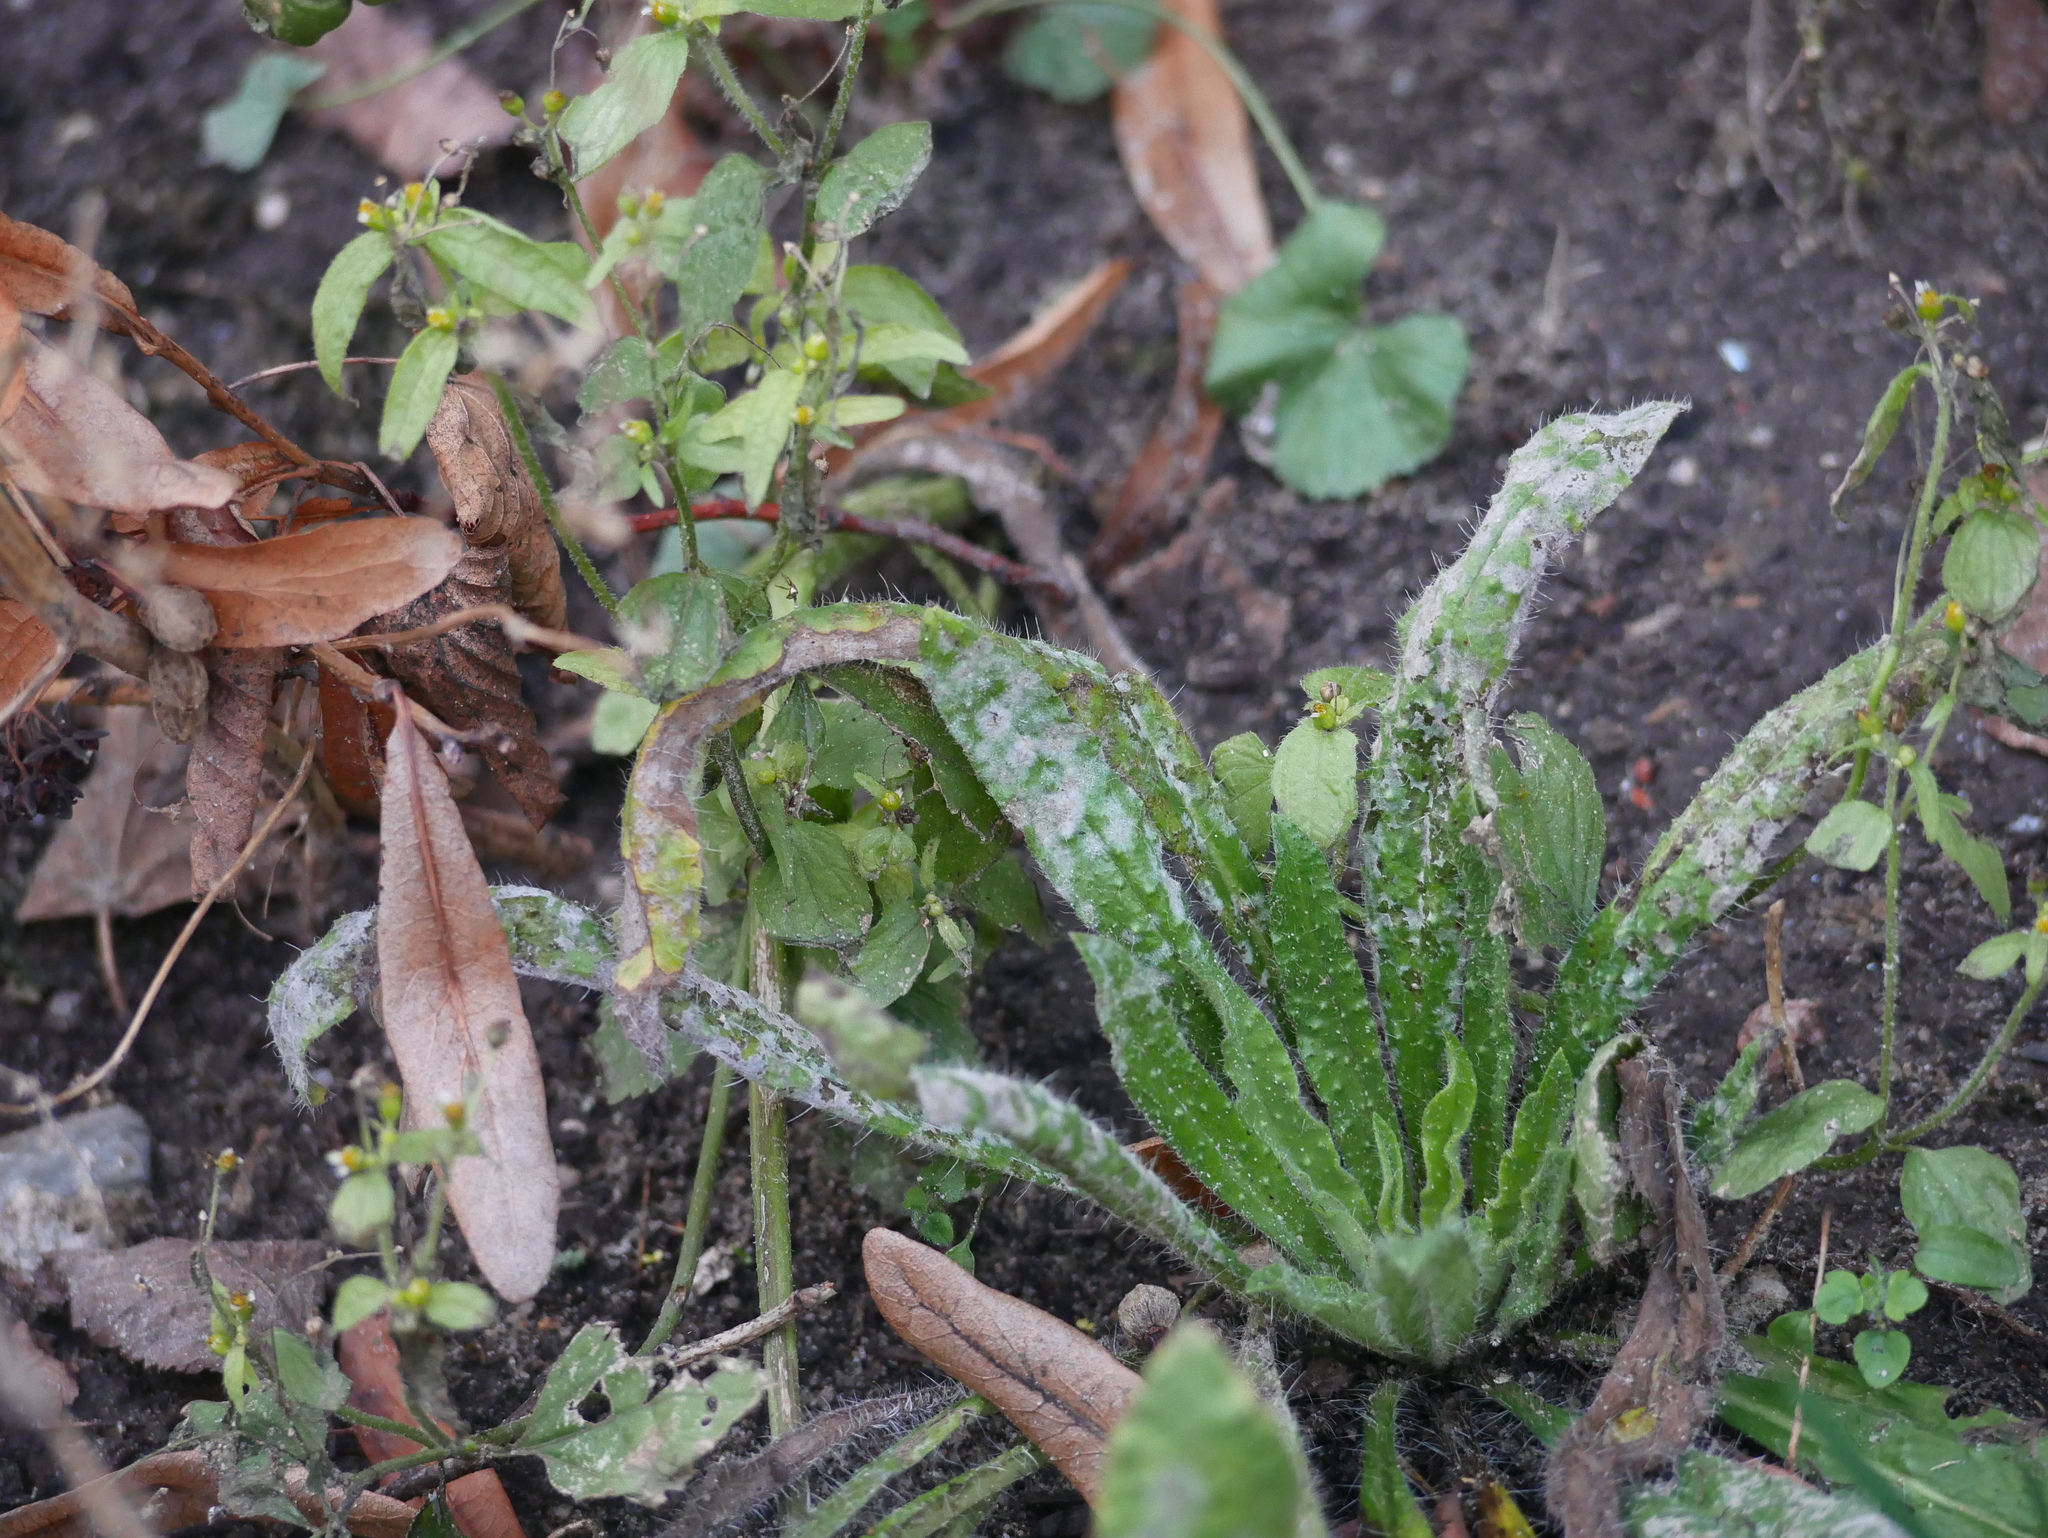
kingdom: Plantae
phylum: Tracheophyta
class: Magnoliopsida
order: Boraginales
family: Boraginaceae
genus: Echium
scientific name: Echium vulgare
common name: Common viper's bugloss
